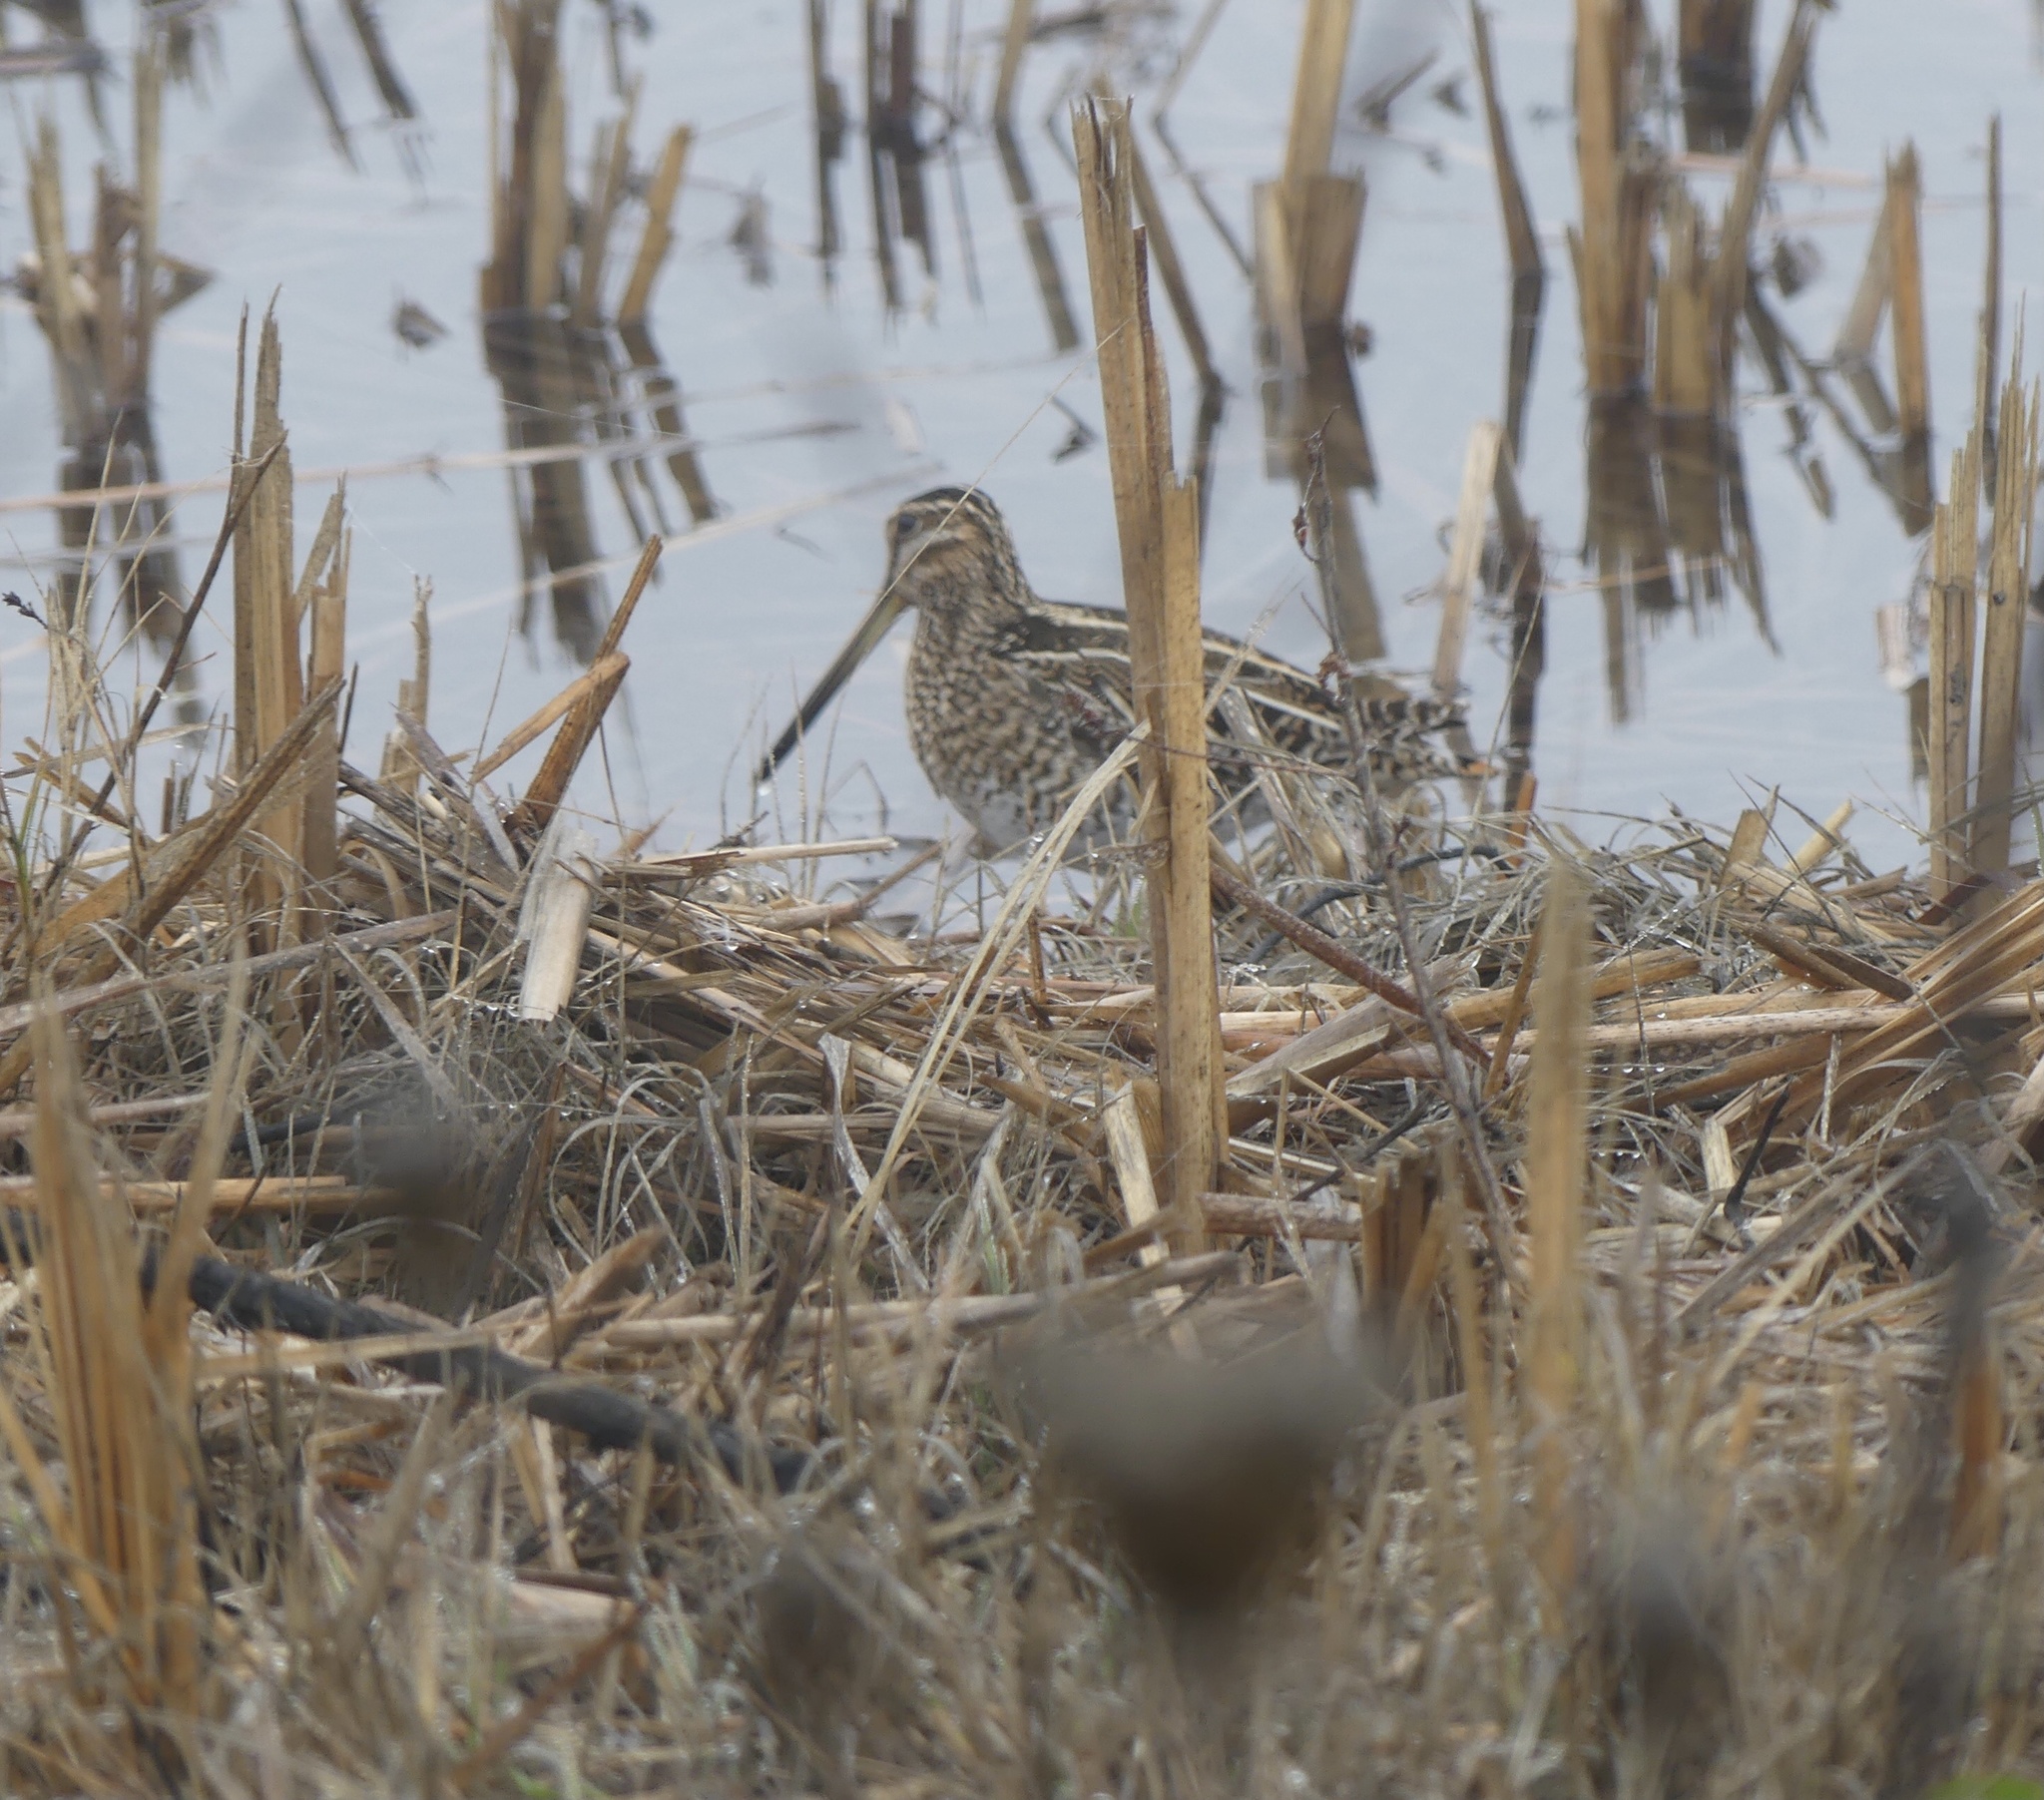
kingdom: Animalia
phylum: Chordata
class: Aves
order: Charadriiformes
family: Scolopacidae
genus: Gallinago
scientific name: Gallinago delicata
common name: Wilson's snipe
